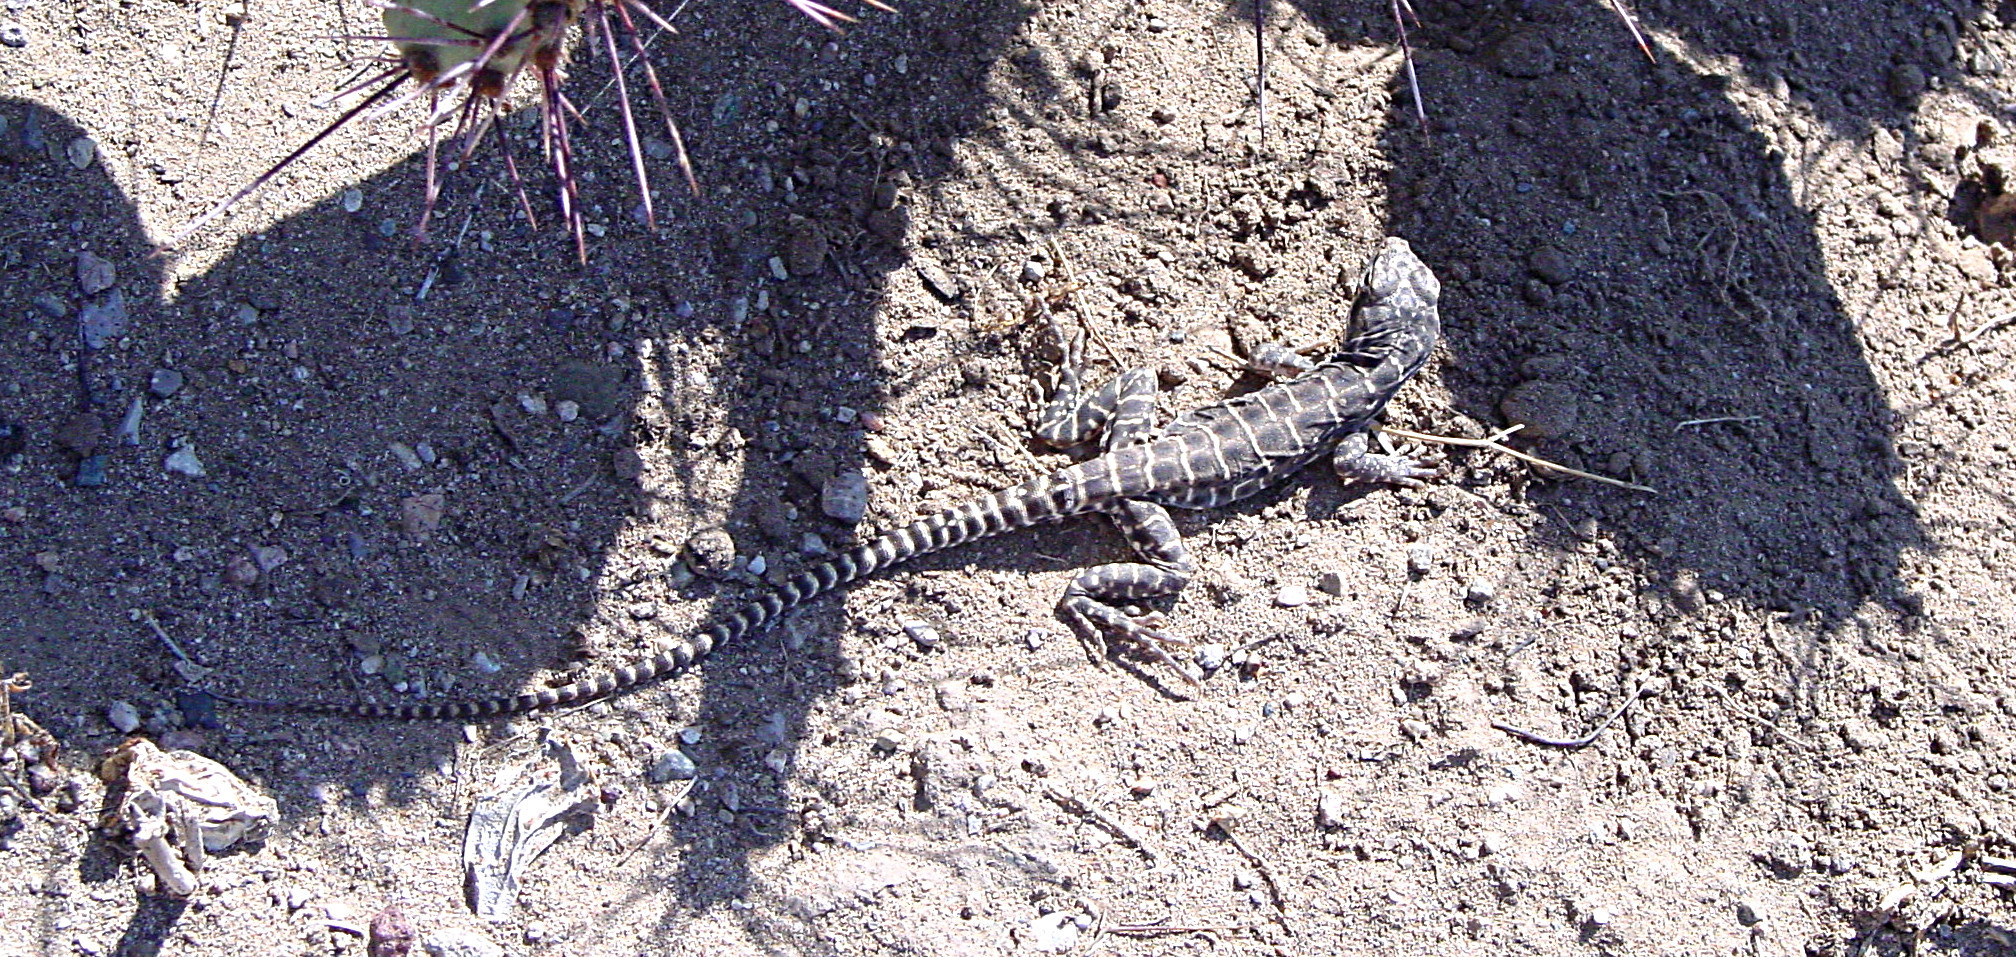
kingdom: Animalia
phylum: Chordata
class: Squamata
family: Crotaphytidae
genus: Gambelia
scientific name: Gambelia wislizenii
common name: Longnose leopard lizard
